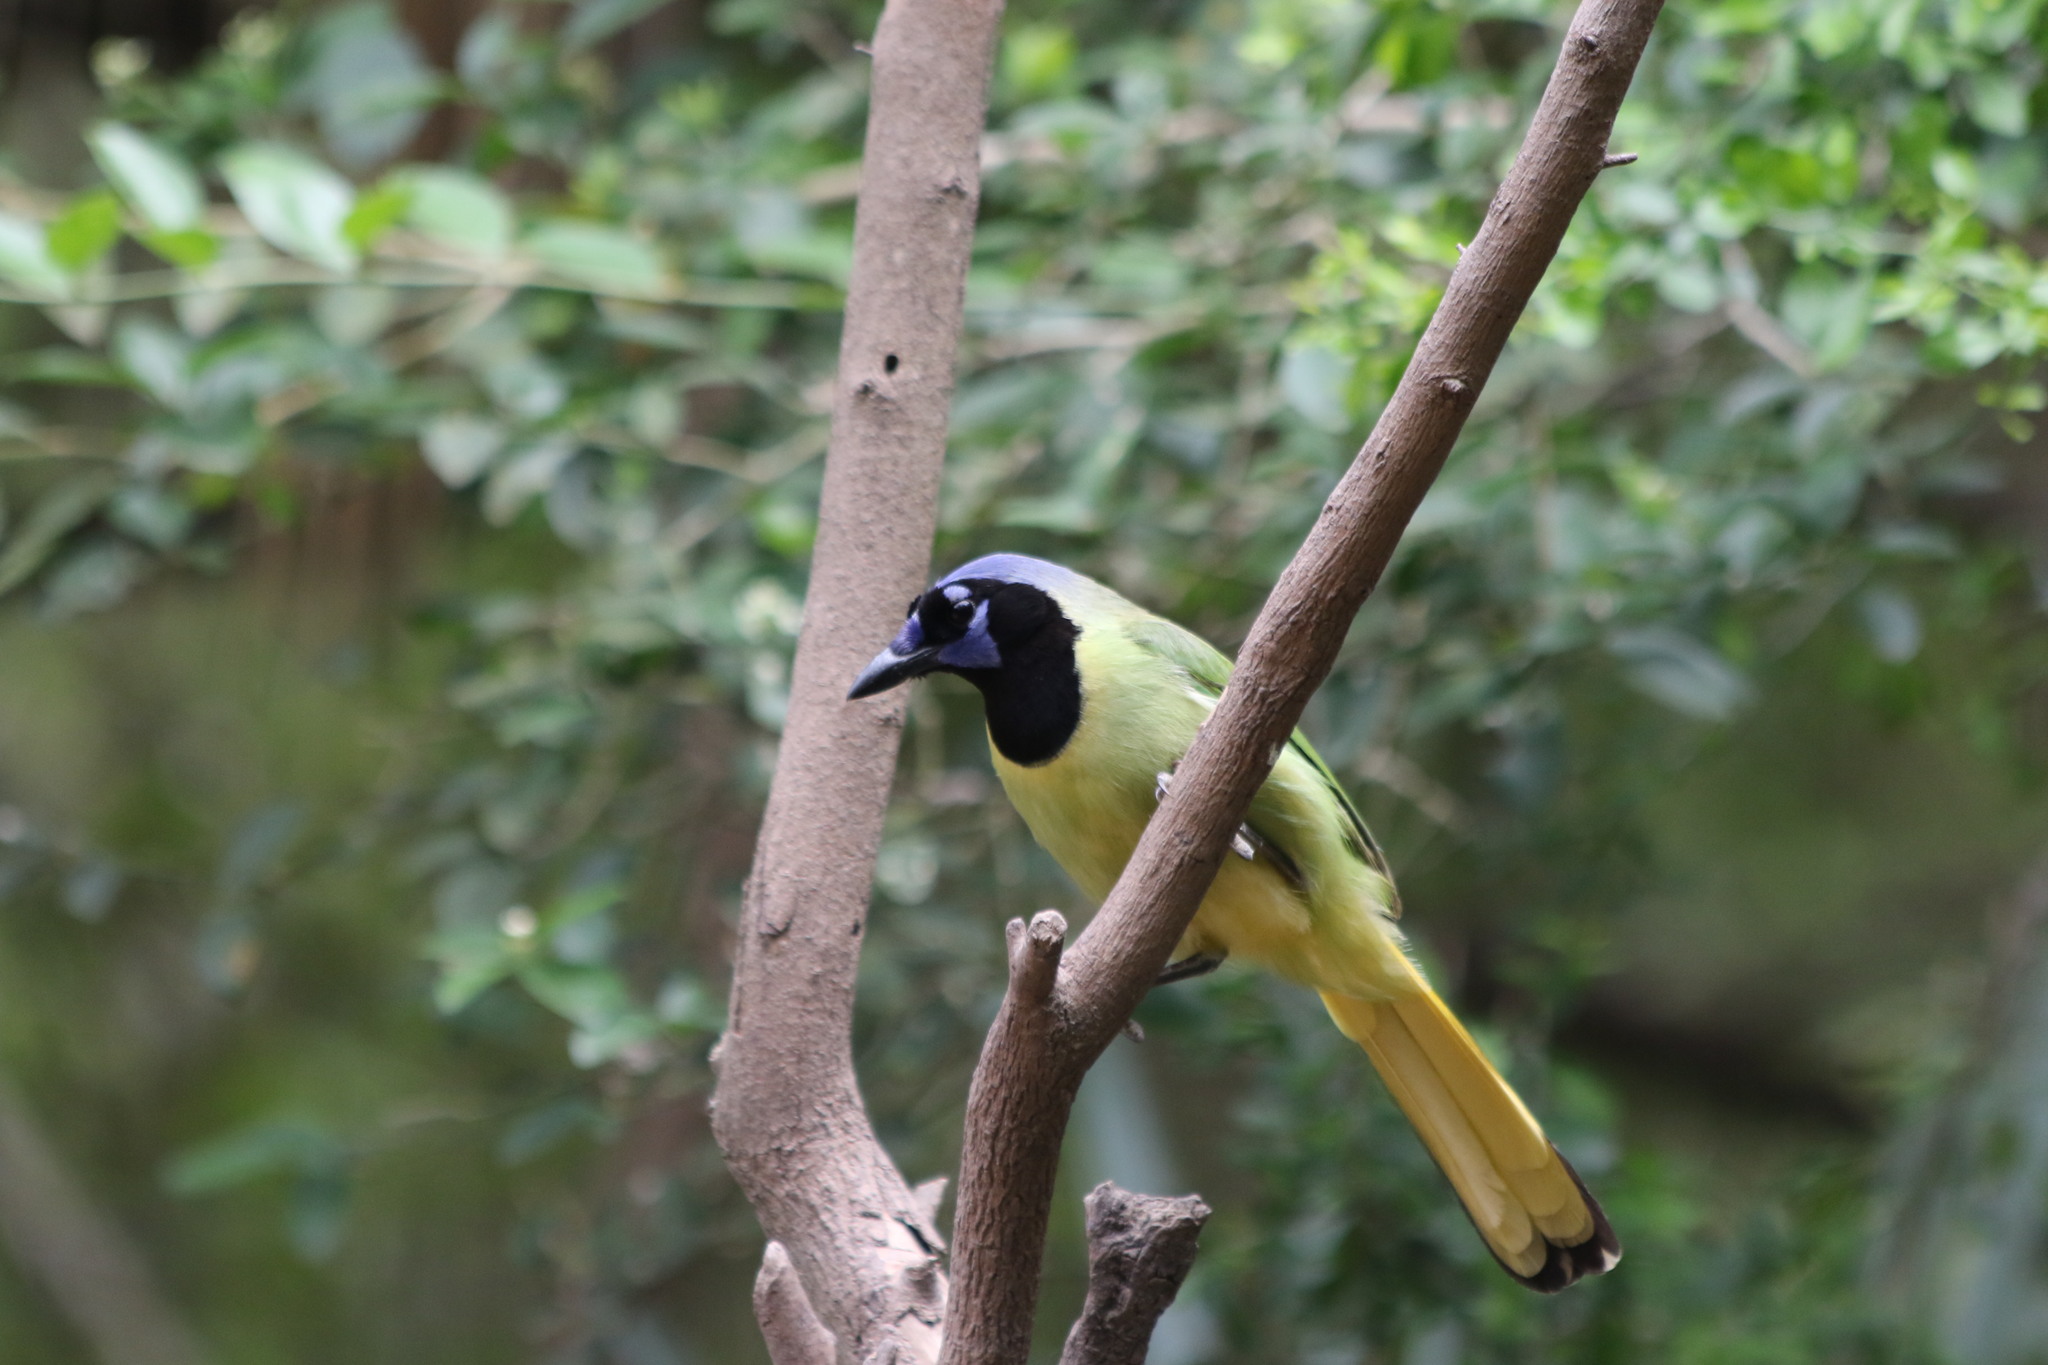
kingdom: Animalia
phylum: Chordata
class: Aves
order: Passeriformes
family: Corvidae
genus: Cyanocorax
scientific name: Cyanocorax yncas
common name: Green jay
